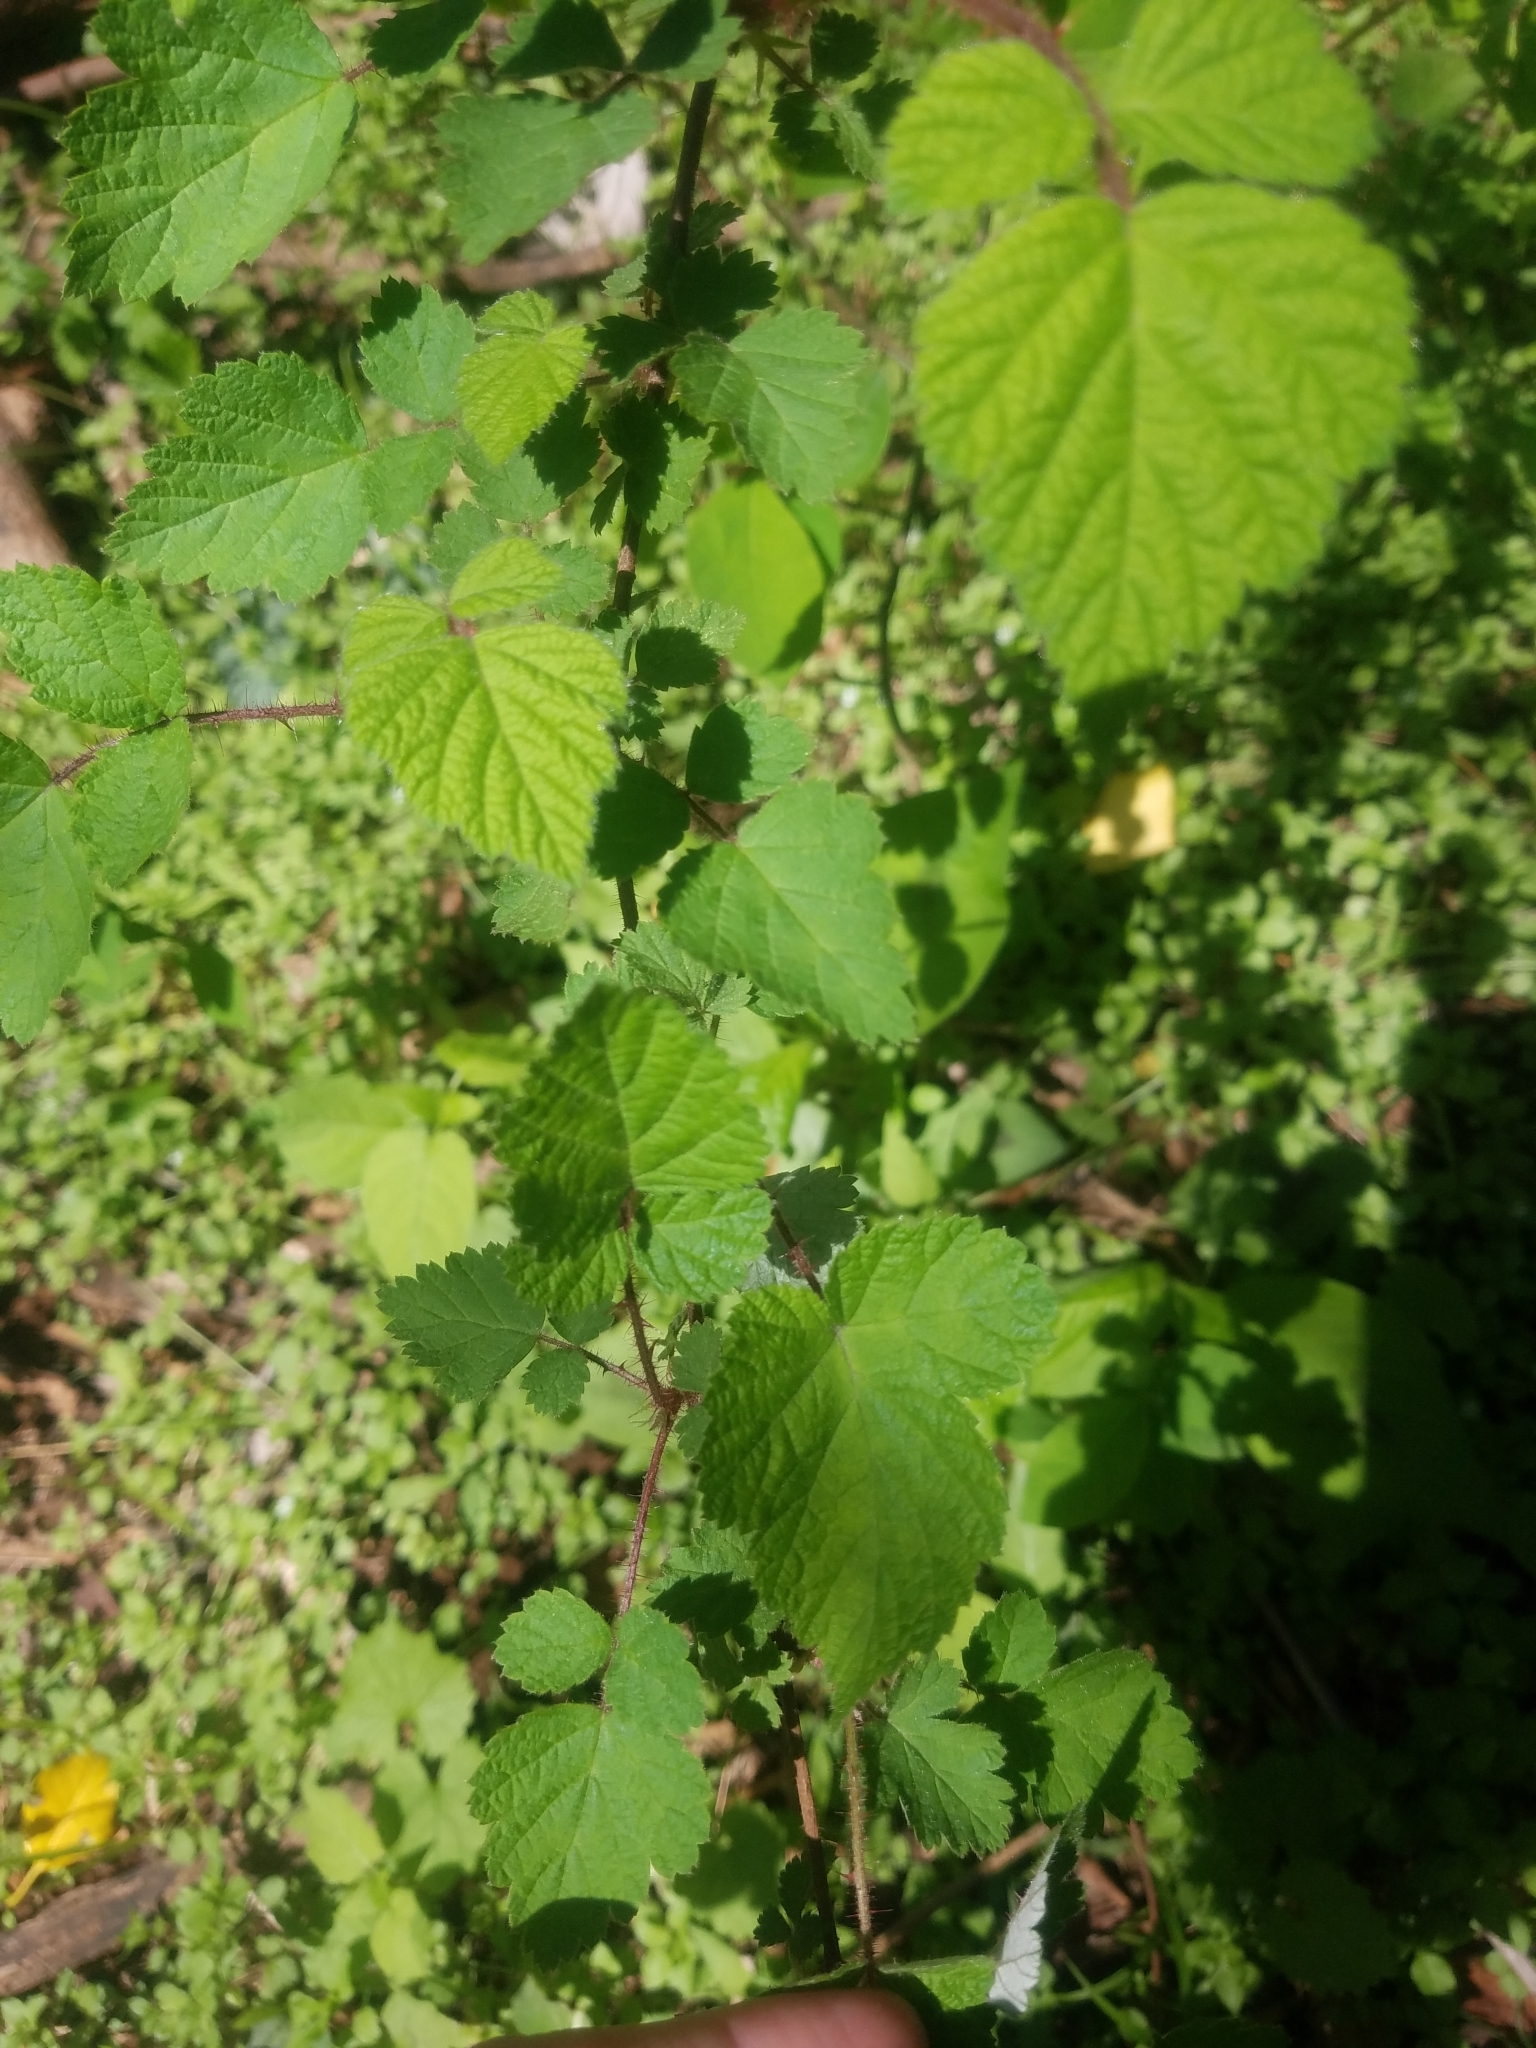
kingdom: Plantae
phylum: Tracheophyta
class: Magnoliopsida
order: Rosales
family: Rosaceae
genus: Rubus
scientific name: Rubus phoenicolasius
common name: Japanese wineberry
